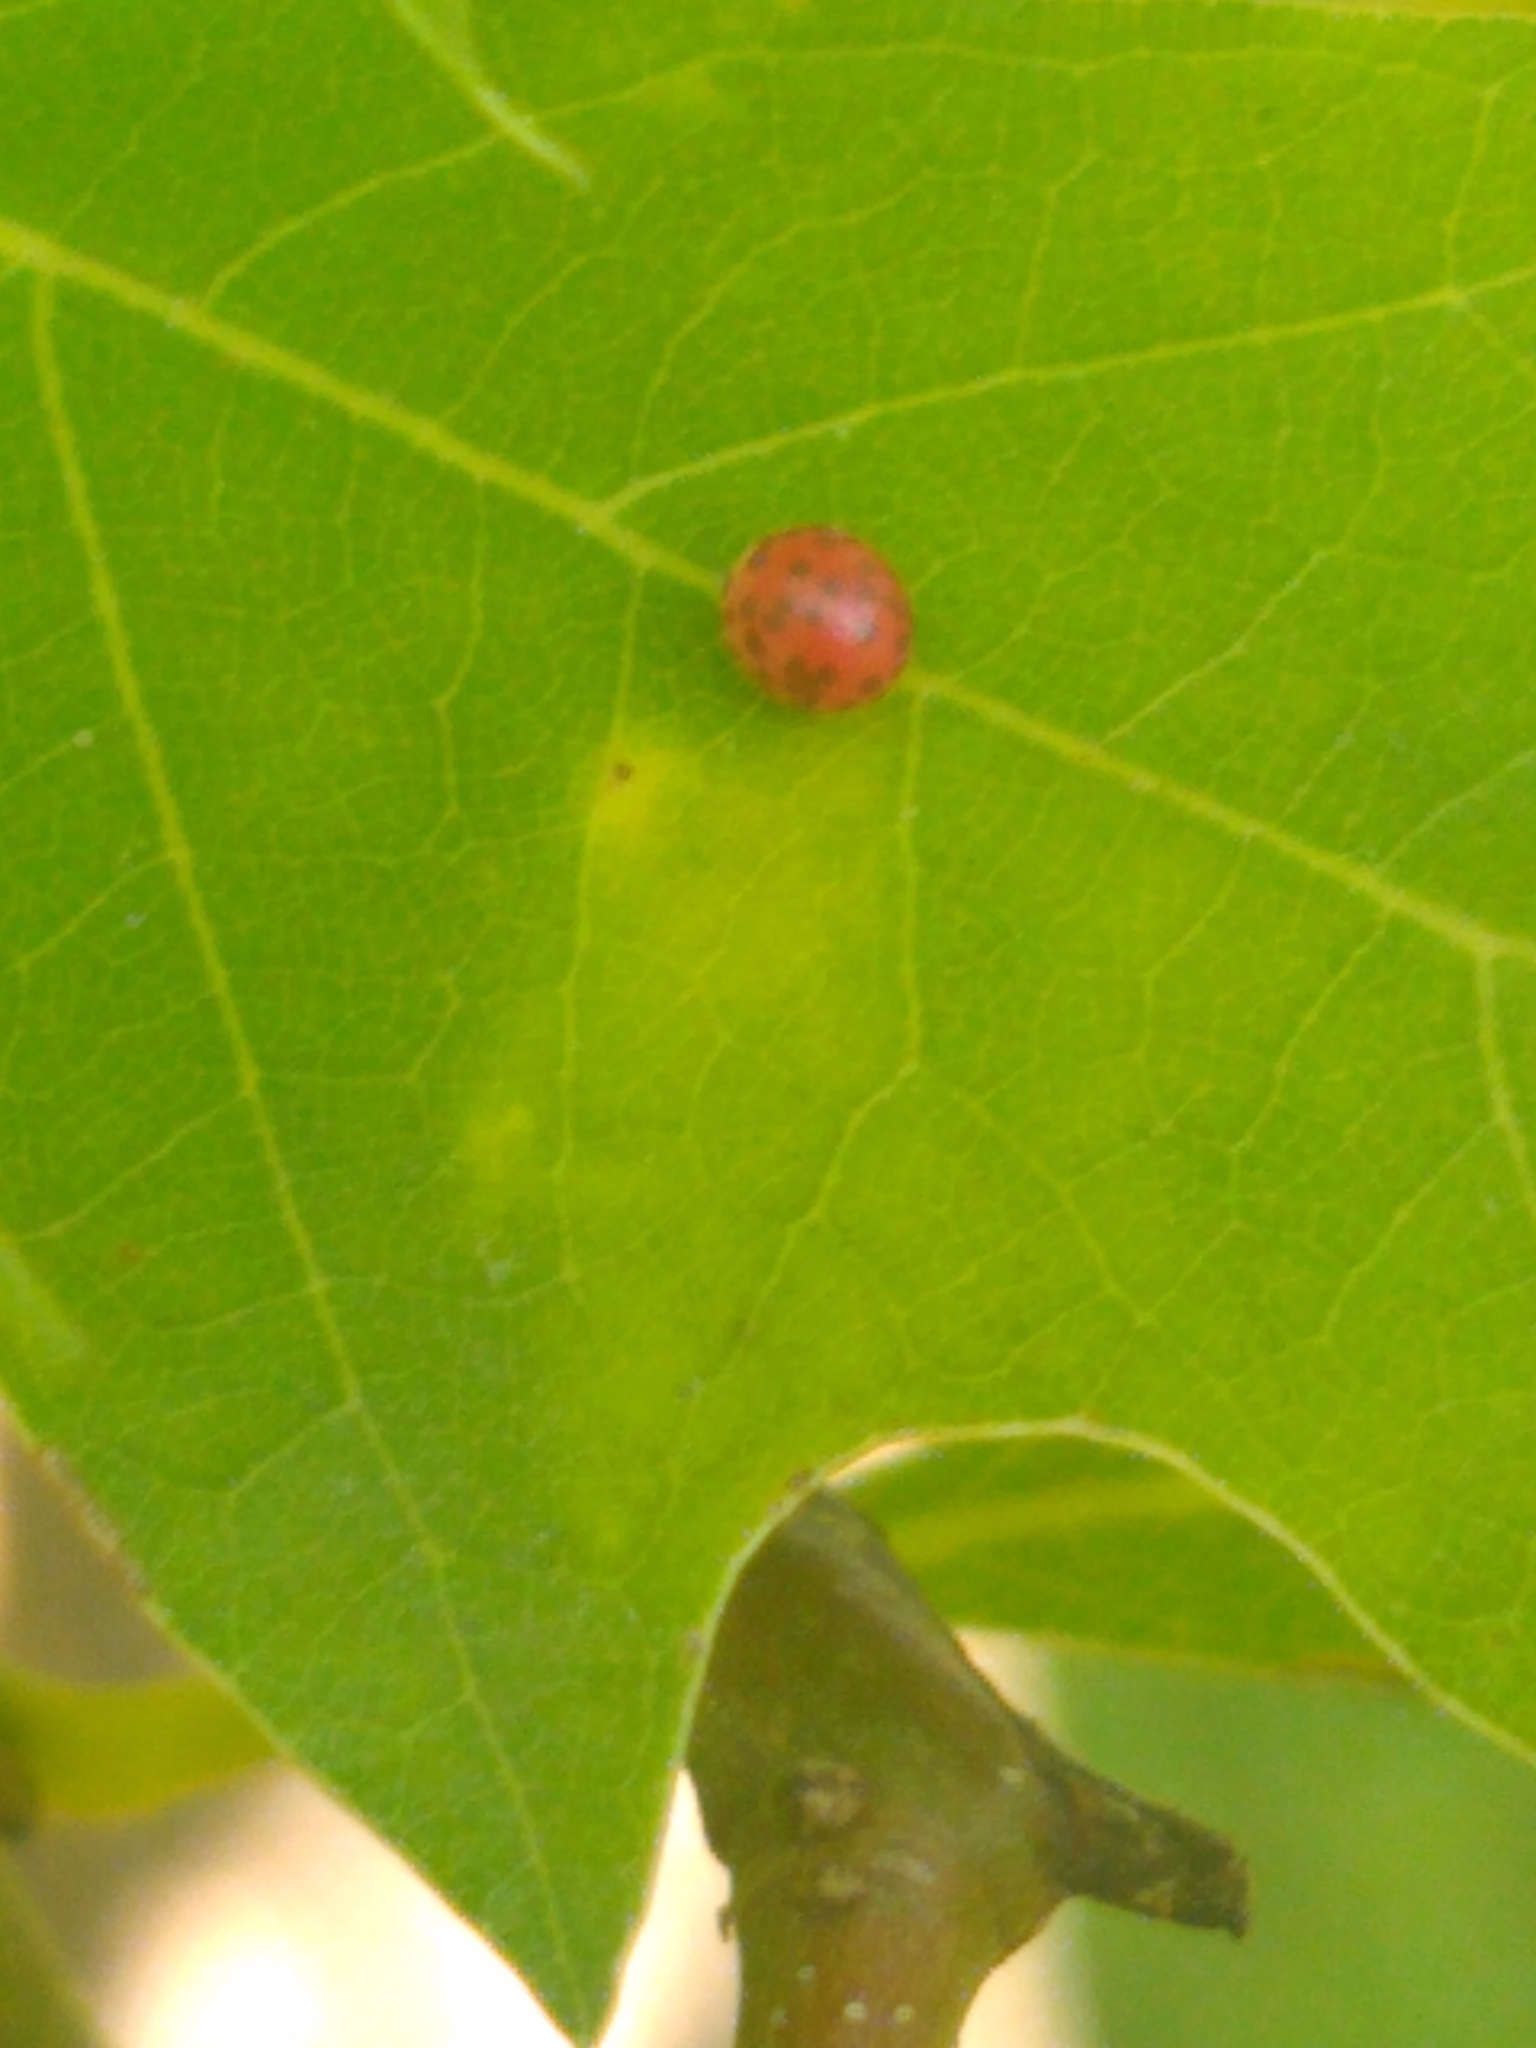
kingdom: Animalia
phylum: Arthropoda
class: Insecta
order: Hymenoptera
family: Cynipidae
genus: Zopheroteras
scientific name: Zopheroteras
